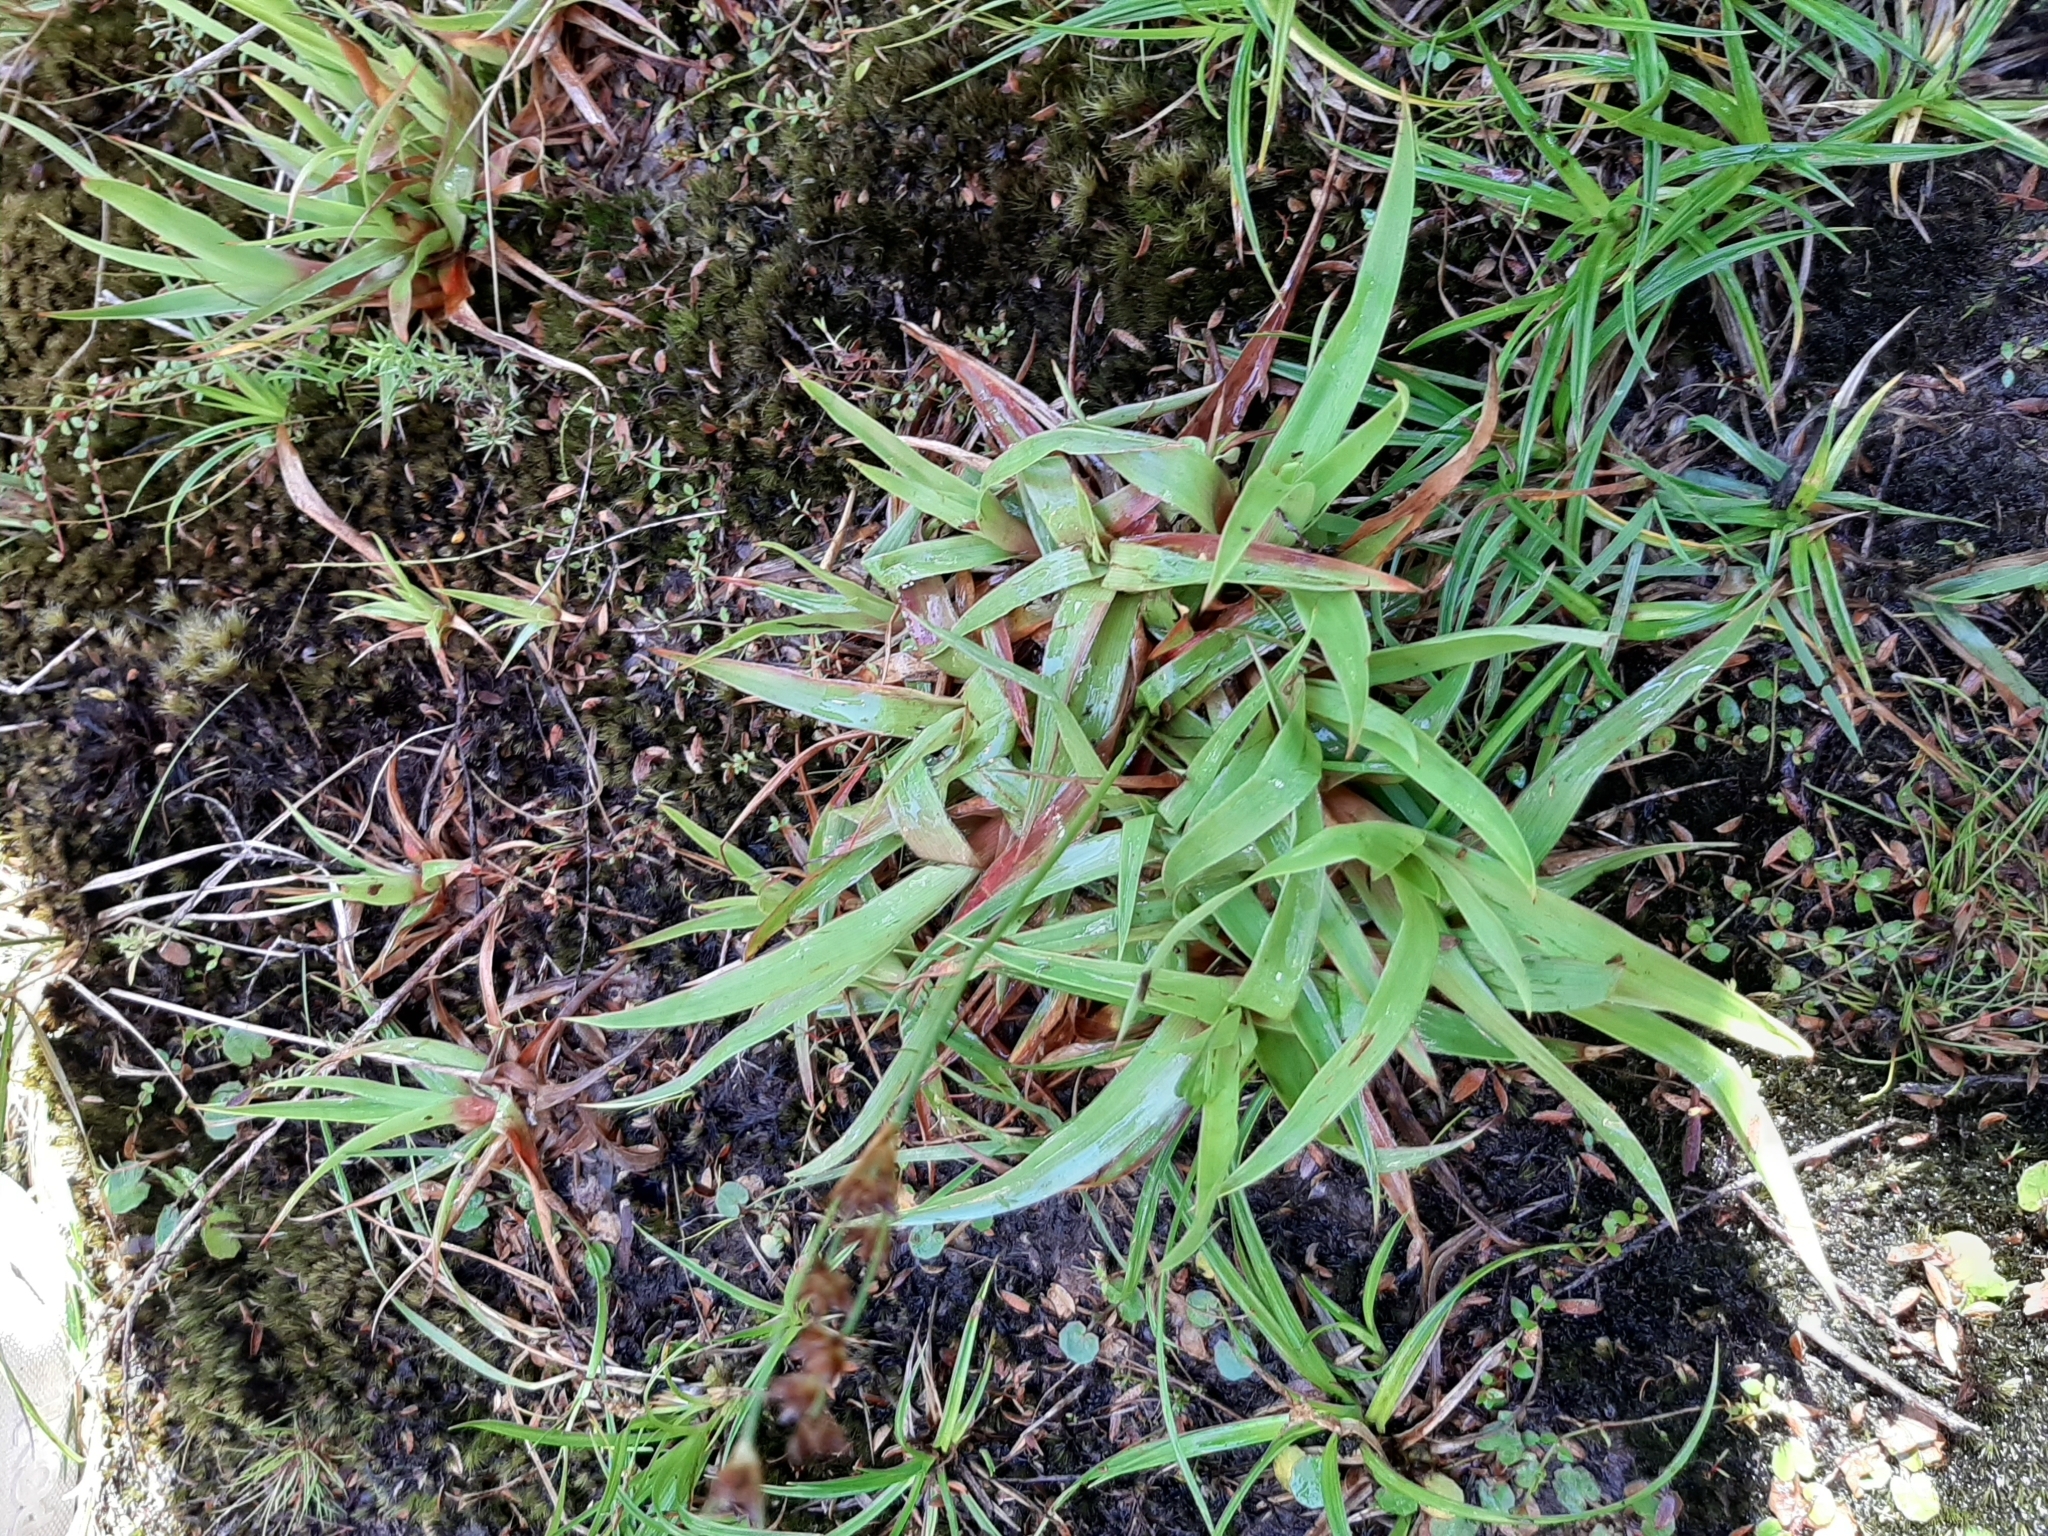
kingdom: Plantae
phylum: Tracheophyta
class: Liliopsida
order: Poales
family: Juncaceae
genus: Juncus
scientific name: Juncus lomatophyllus
